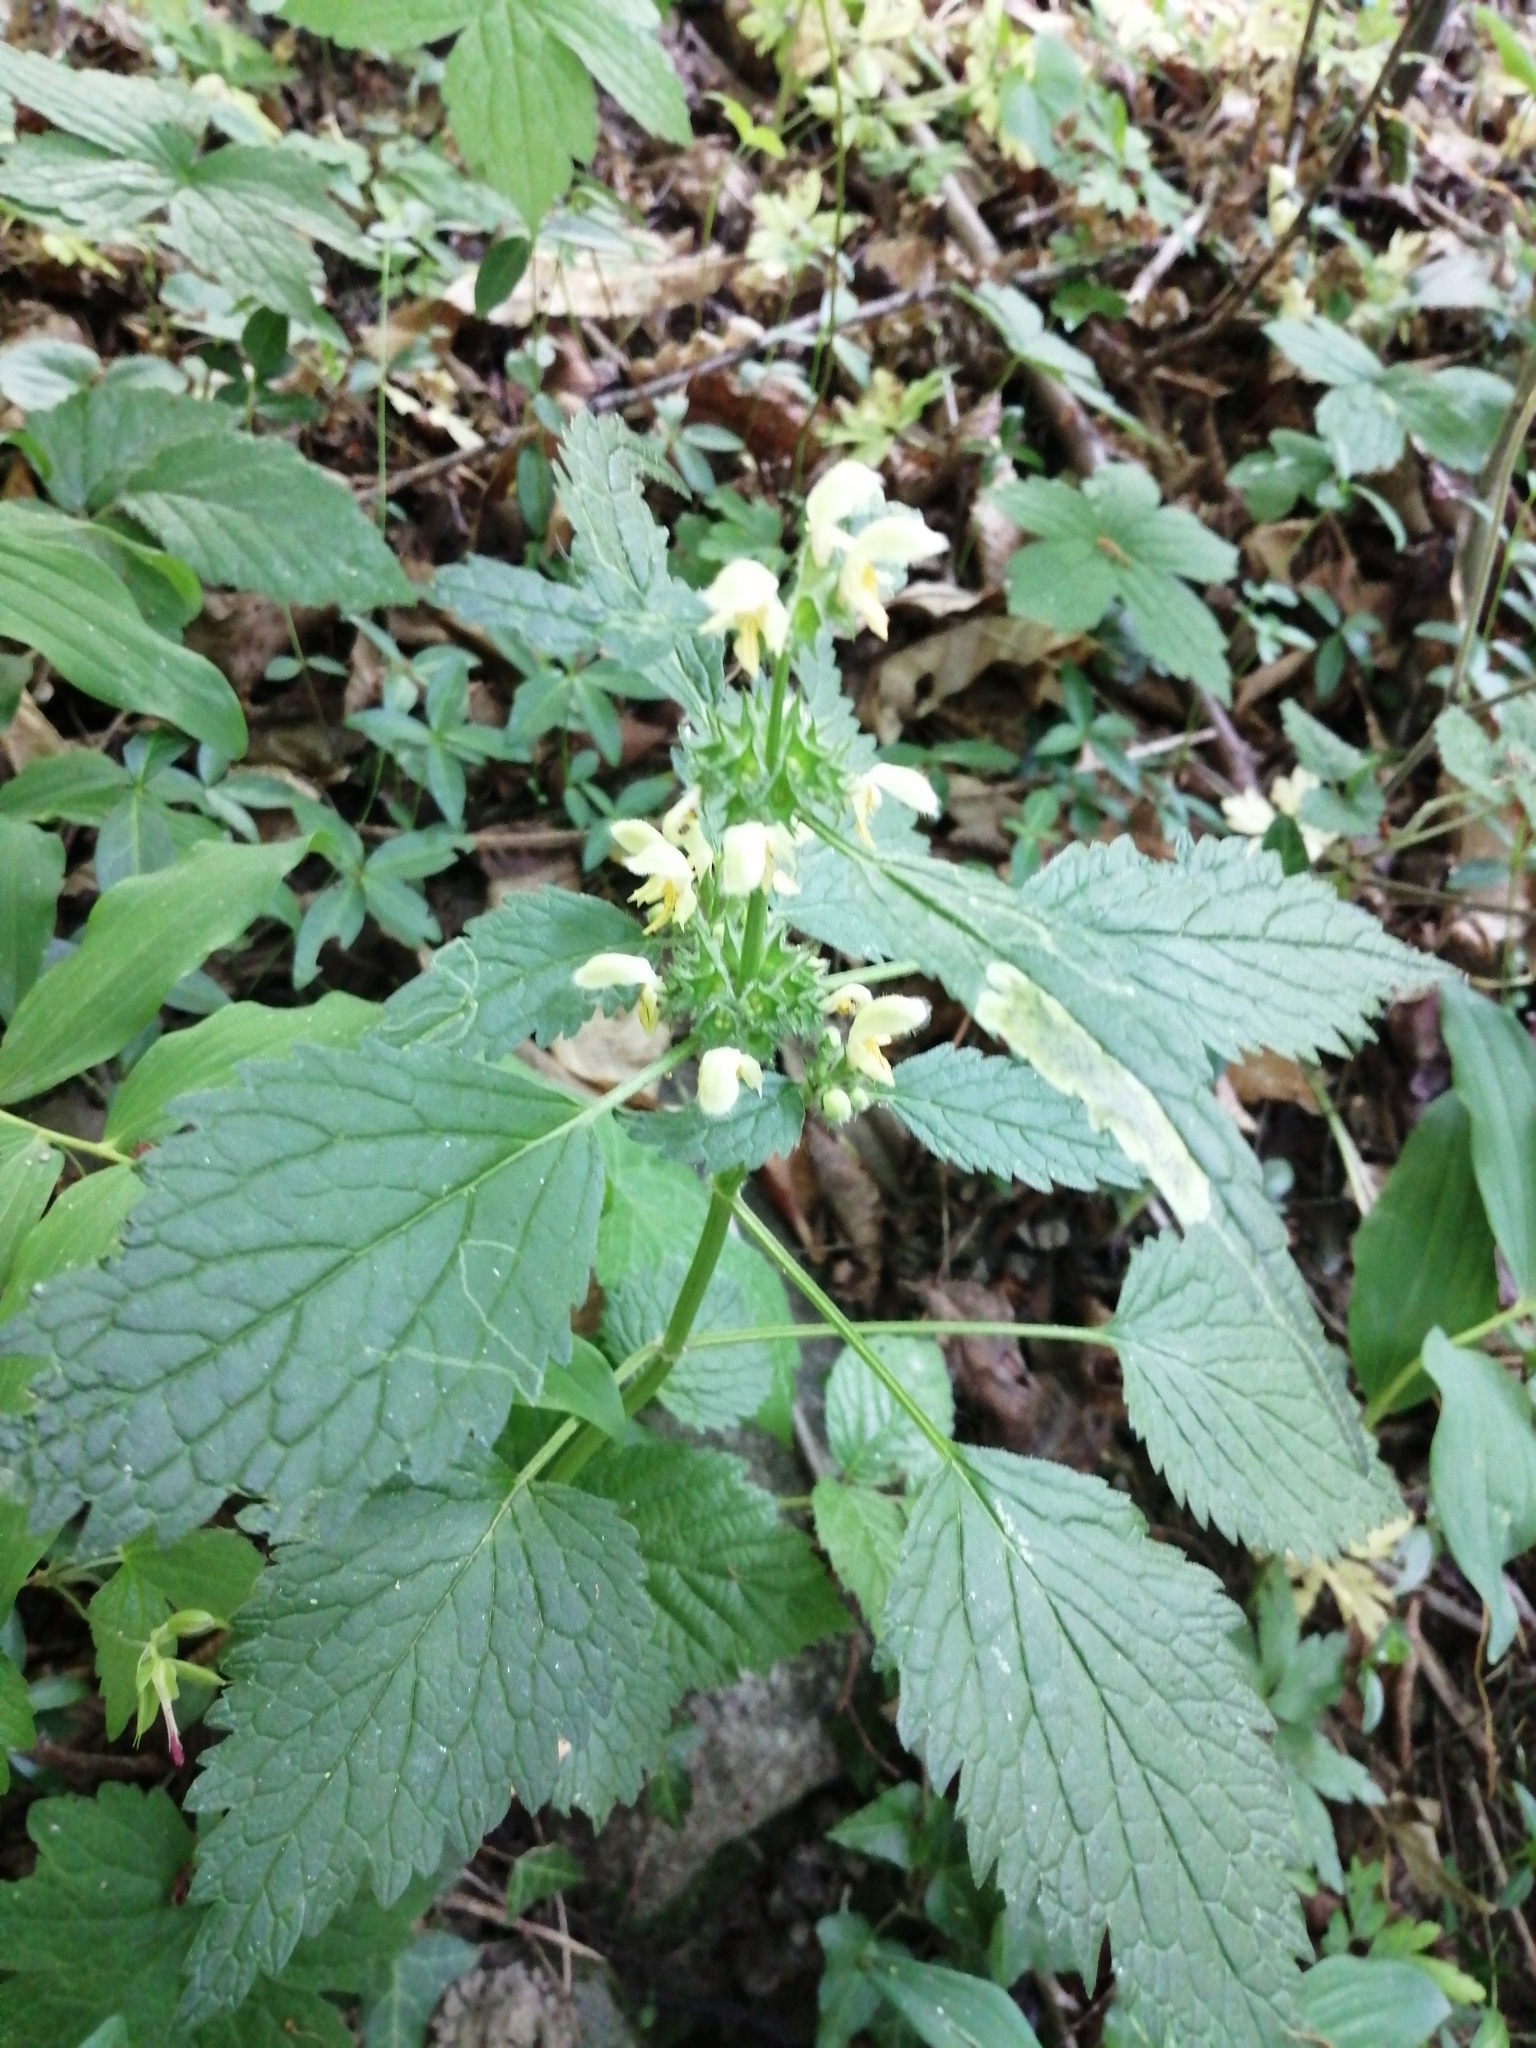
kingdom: Plantae
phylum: Tracheophyta
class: Magnoliopsida
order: Lamiales
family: Lamiaceae
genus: Lamium
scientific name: Lamium galeobdolon
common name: Yellow archangel
